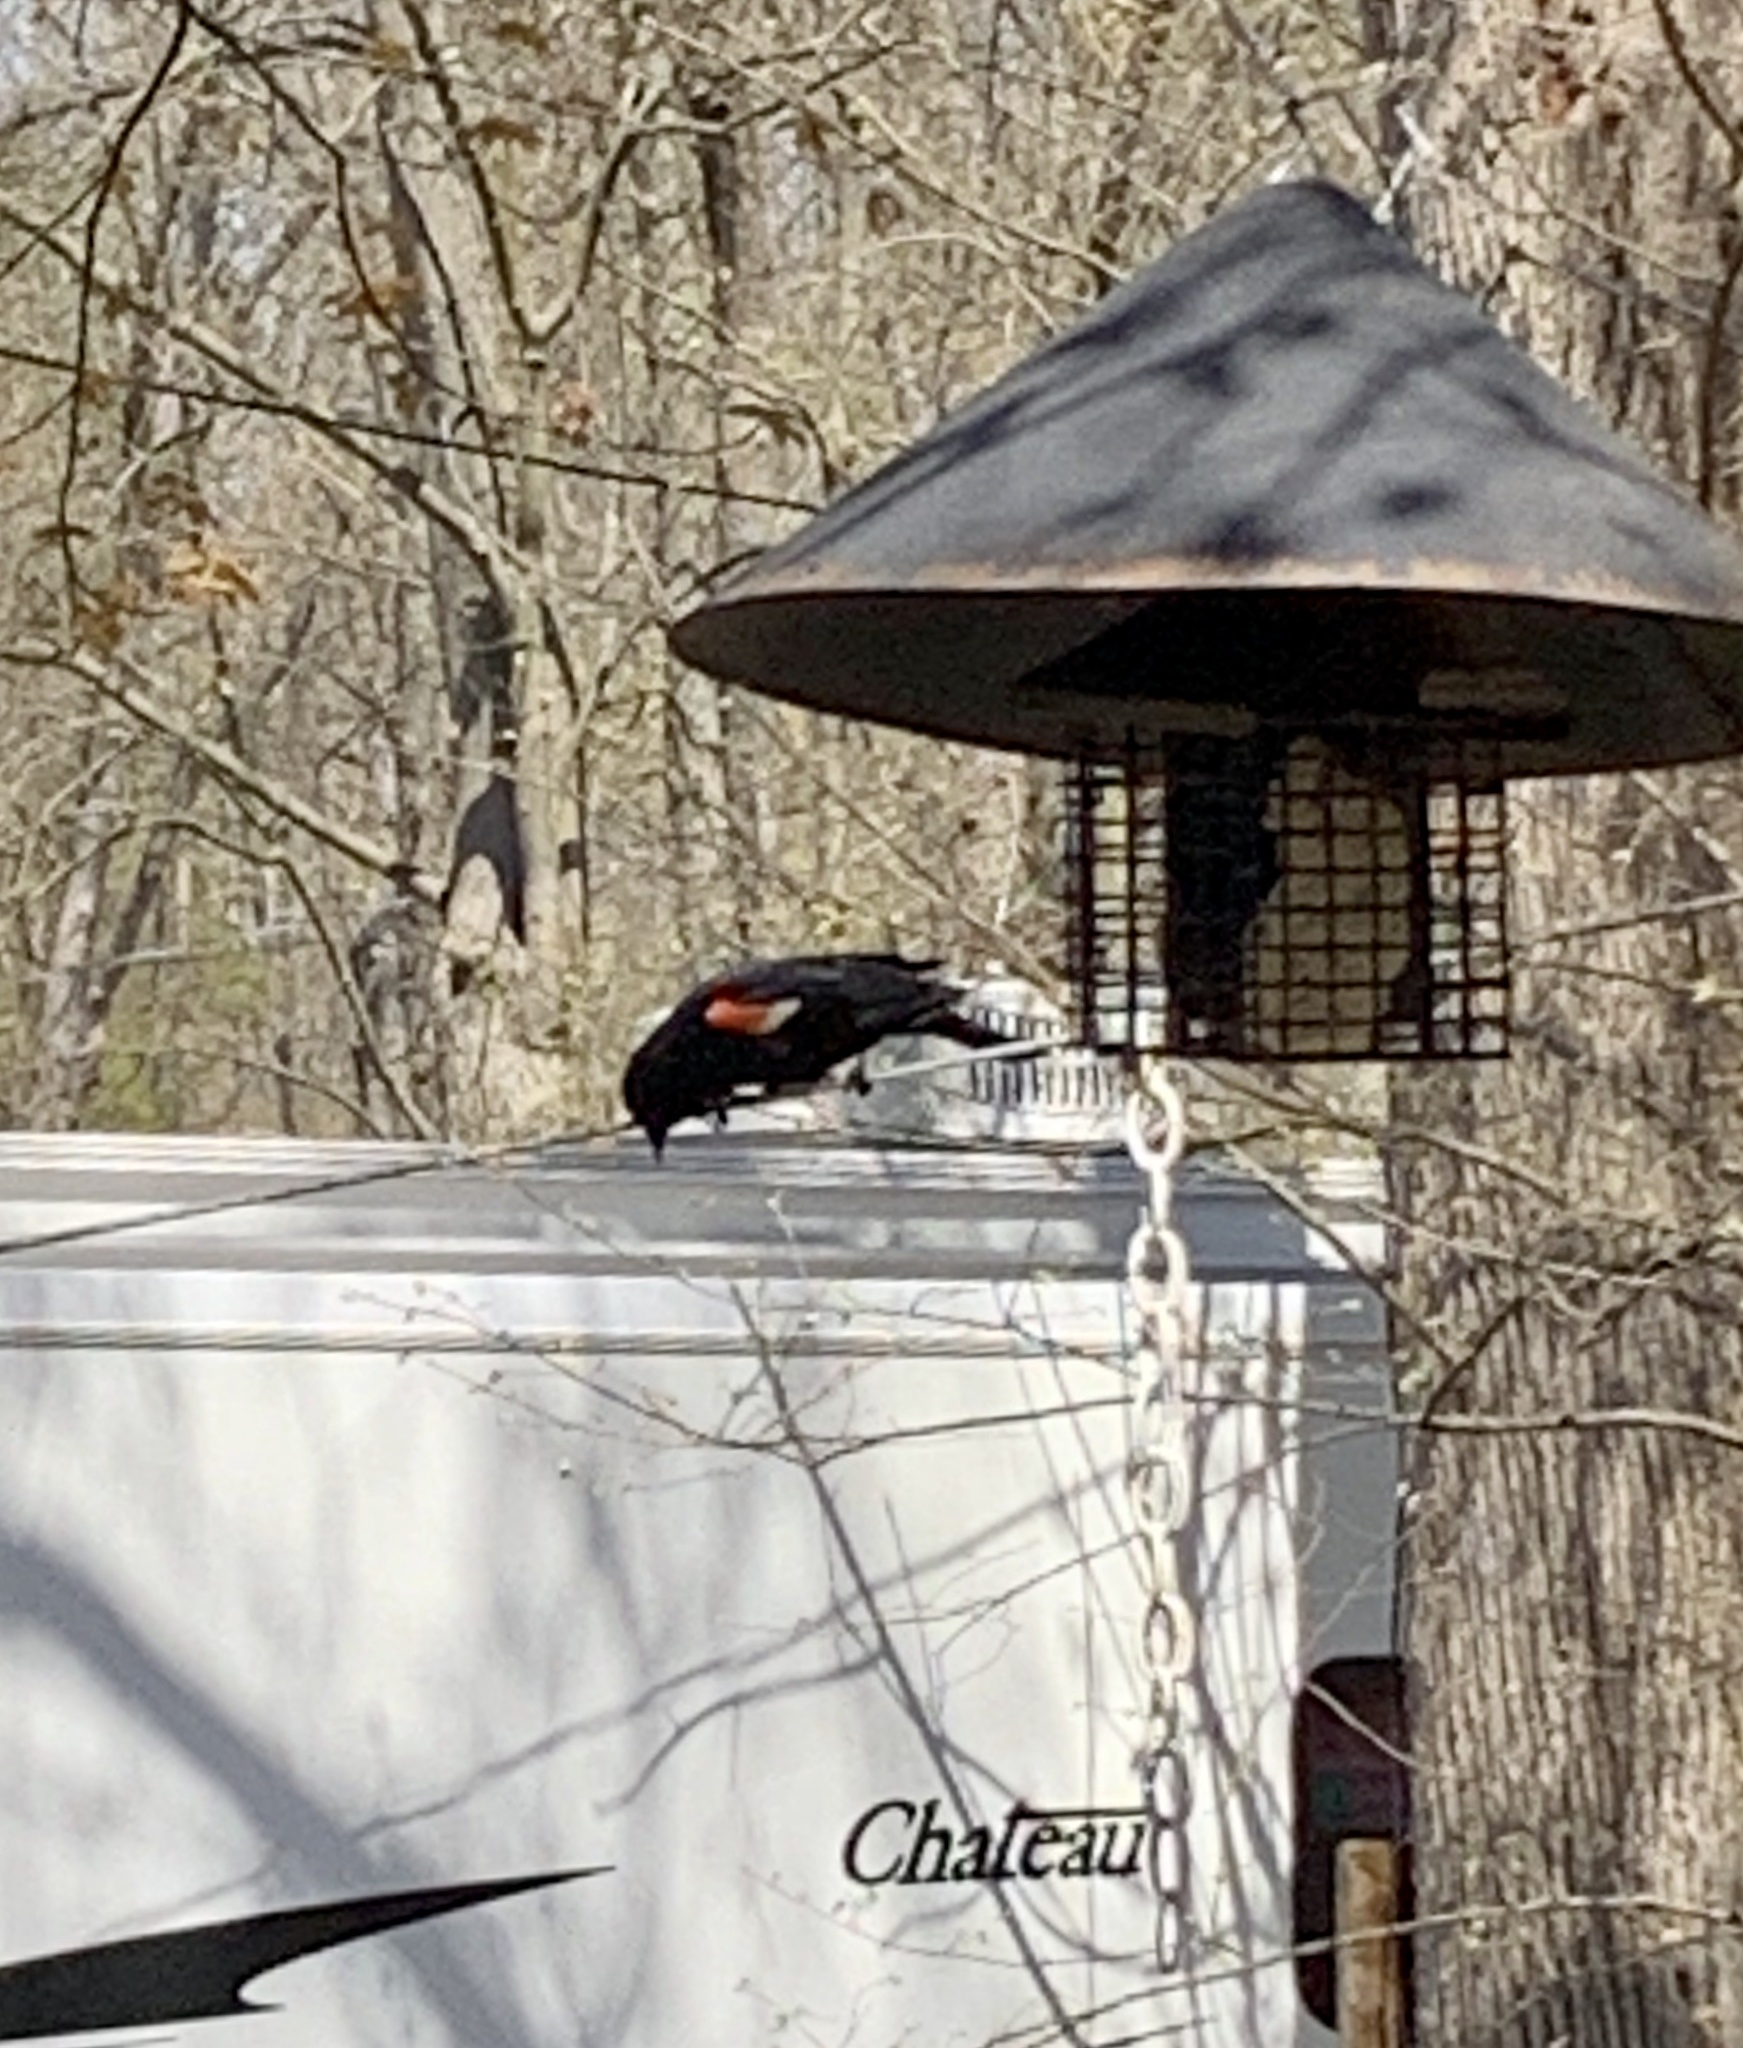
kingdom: Animalia
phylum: Chordata
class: Aves
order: Passeriformes
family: Icteridae
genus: Agelaius
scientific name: Agelaius phoeniceus
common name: Red-winged blackbird
